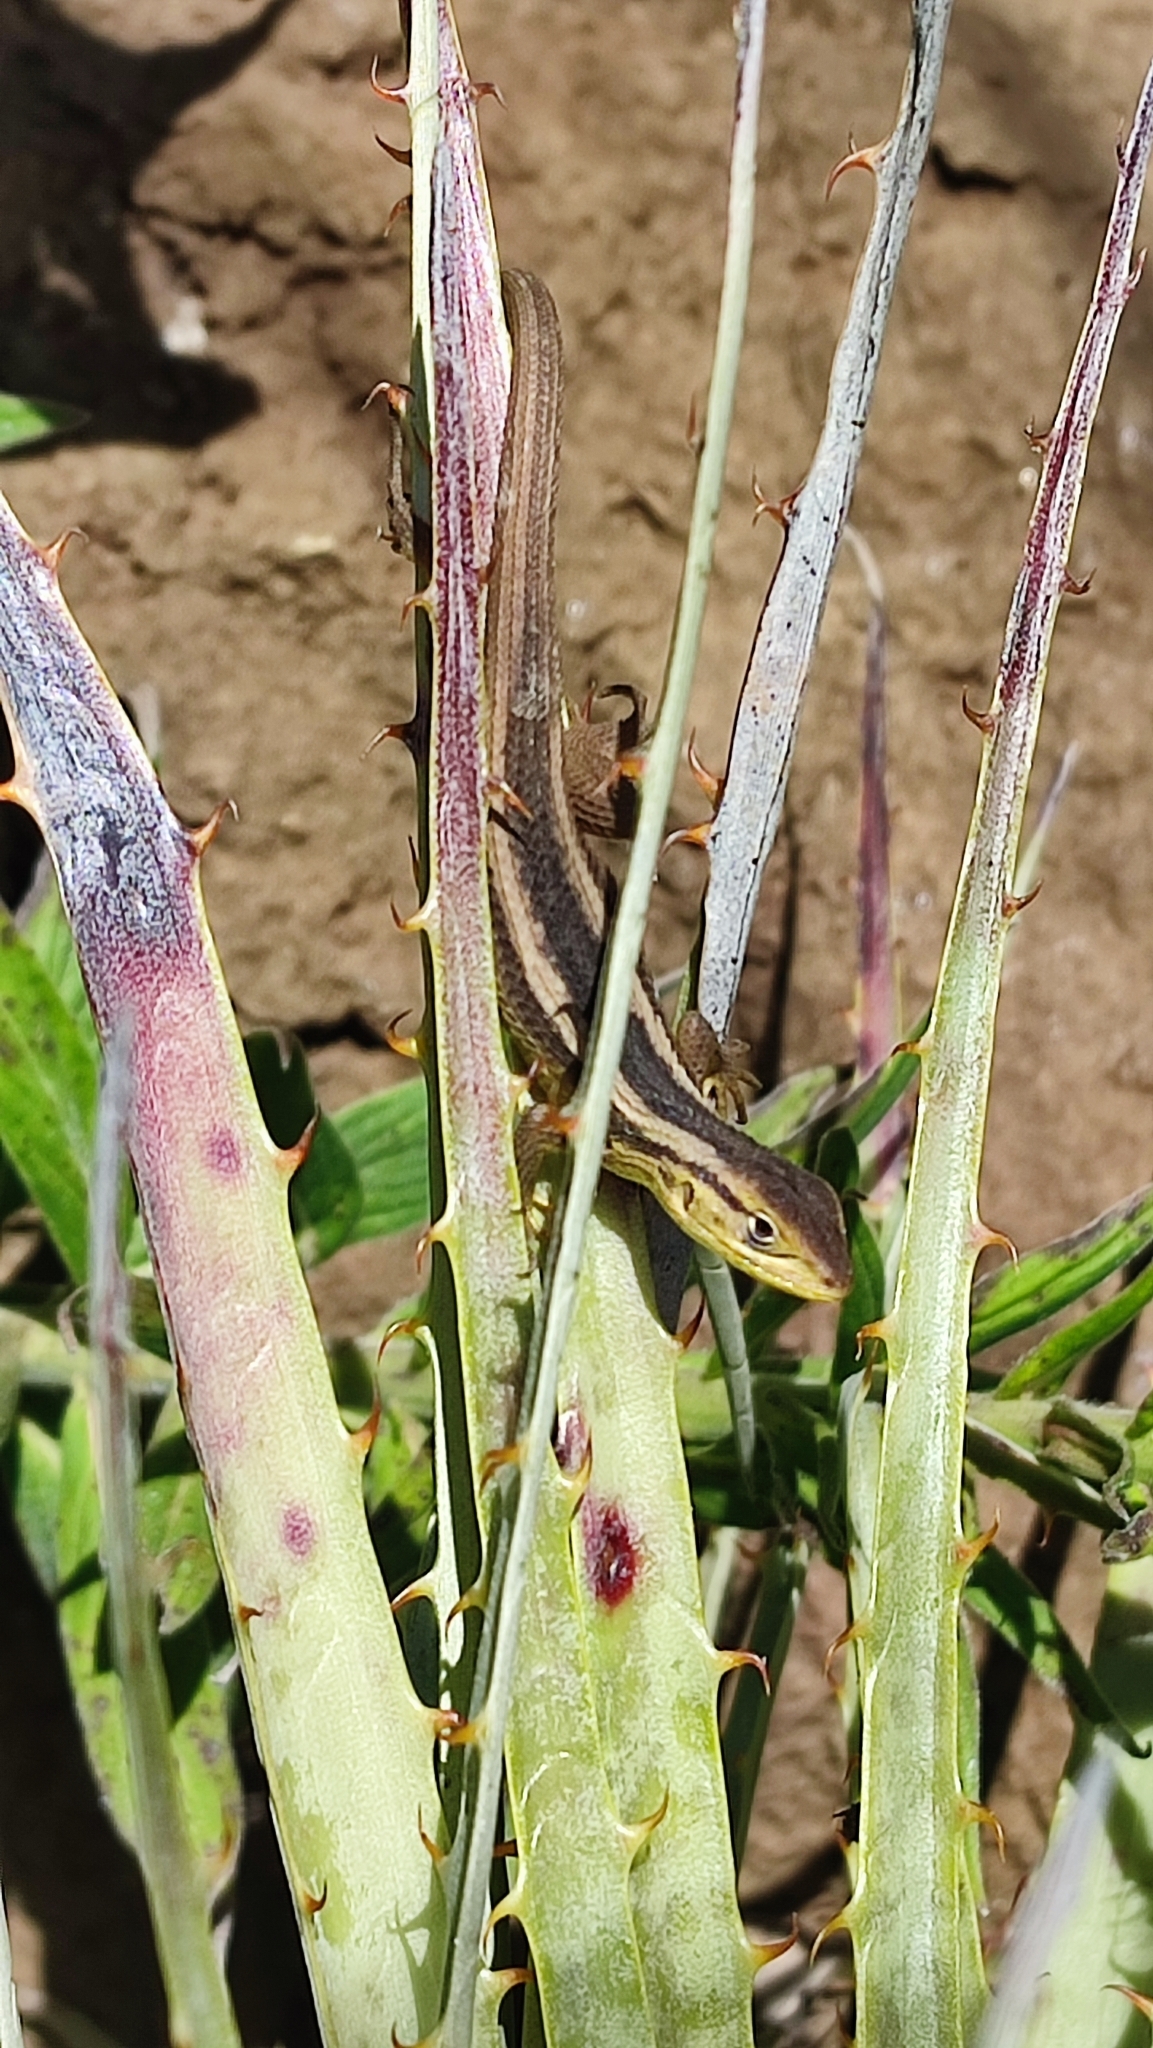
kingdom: Animalia
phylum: Chordata
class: Squamata
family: Liolaemidae
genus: Liolaemus
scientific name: Liolaemus chiliensis
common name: Chilean tree iguana
